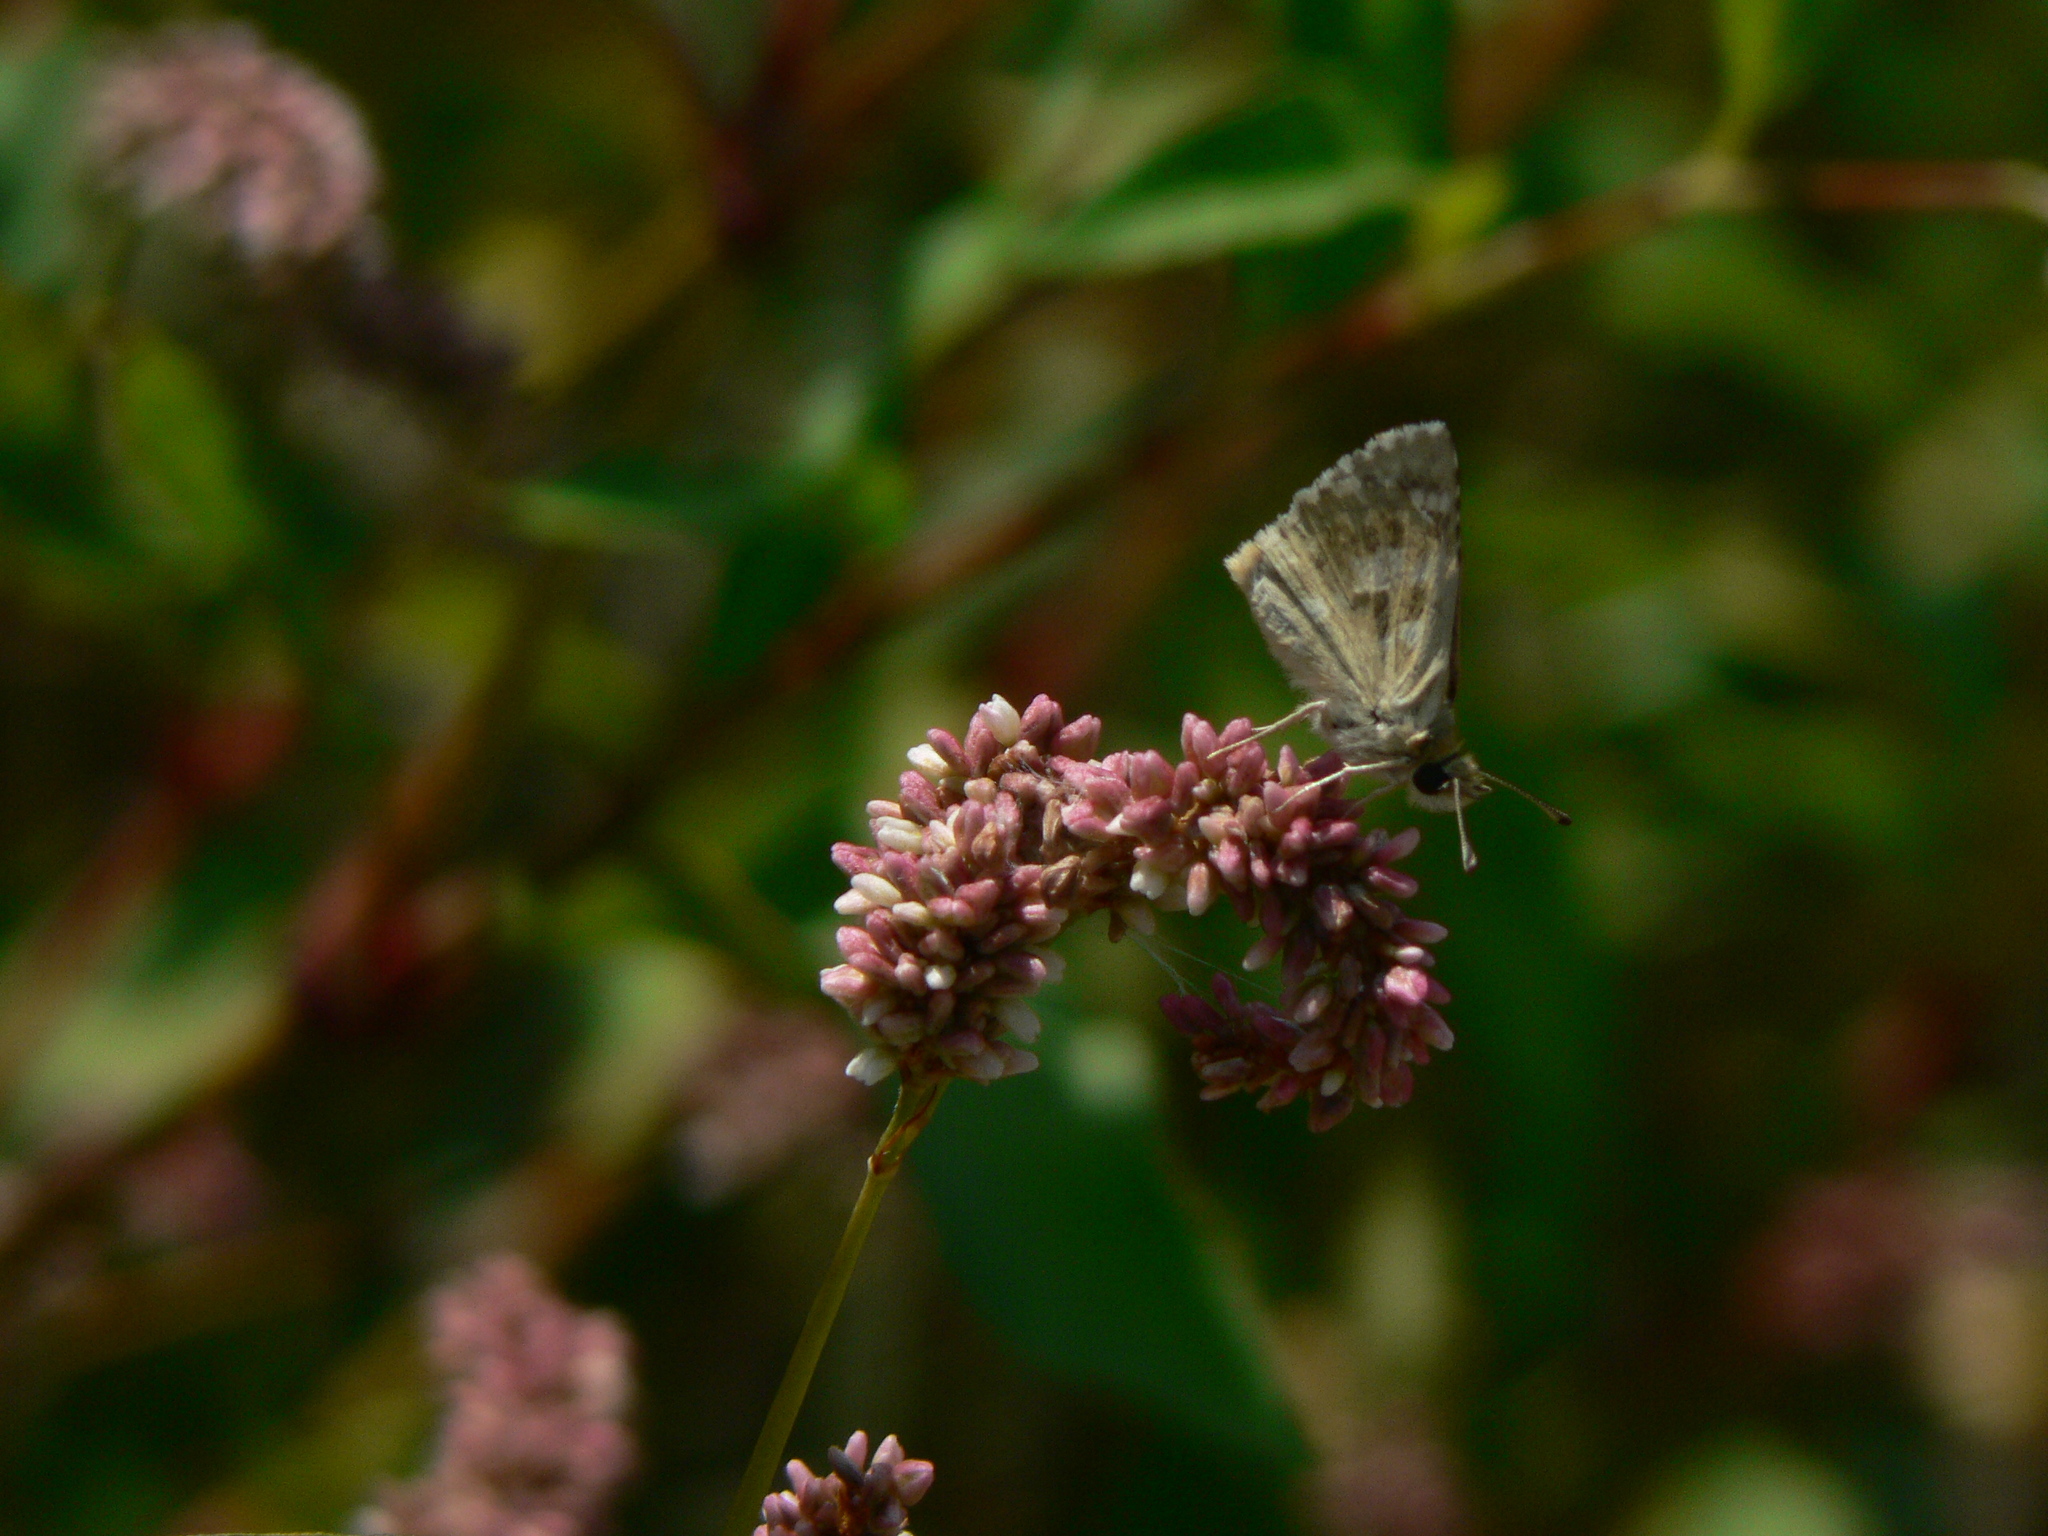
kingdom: Animalia
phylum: Arthropoda
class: Insecta
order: Lepidoptera
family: Hesperiidae
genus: Syrichtus
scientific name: Syrichtus Muschampia proto
